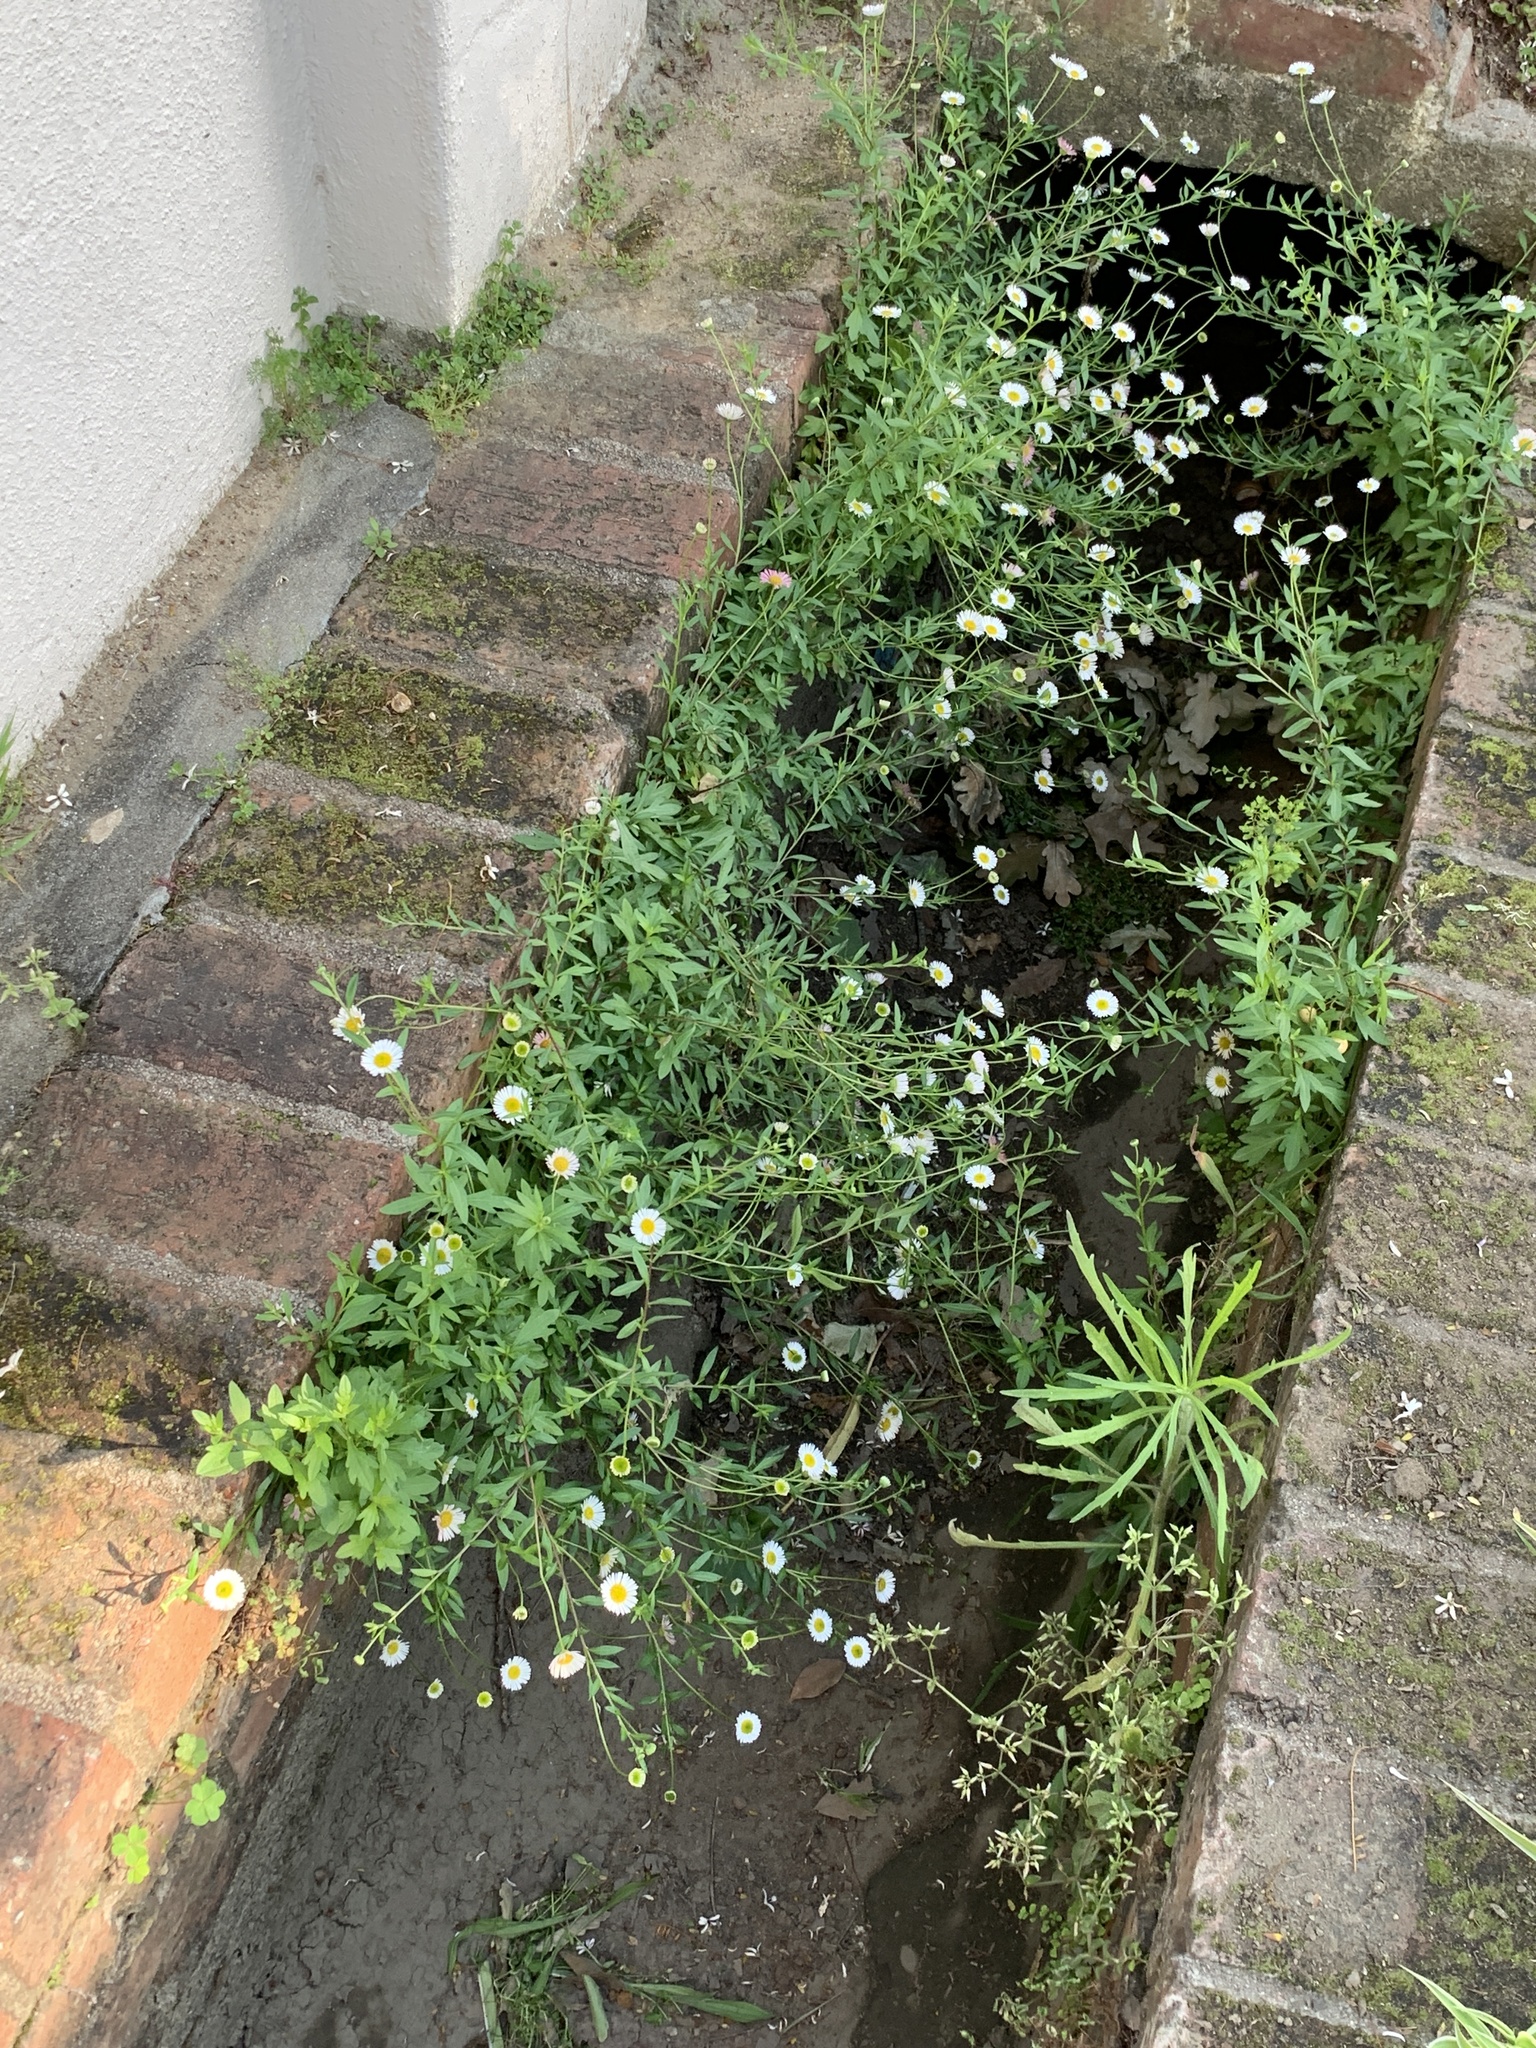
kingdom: Plantae
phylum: Tracheophyta
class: Magnoliopsida
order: Asterales
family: Asteraceae
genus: Erigeron
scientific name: Erigeron karvinskianus
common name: Mexican fleabane
